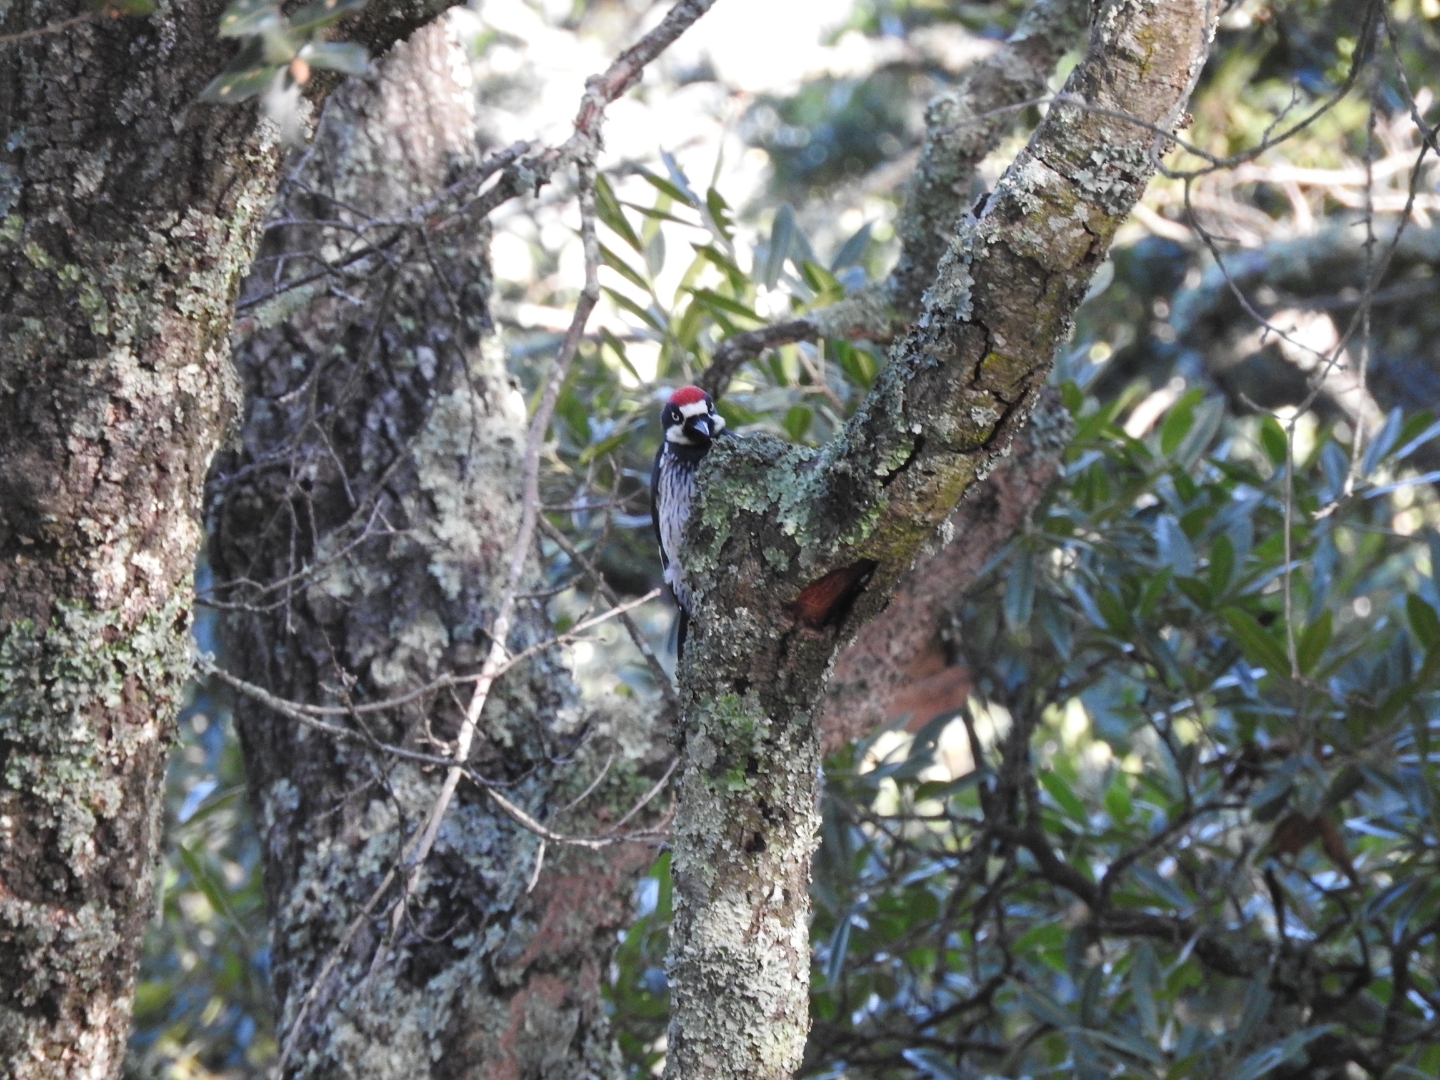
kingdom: Animalia
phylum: Chordata
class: Aves
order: Piciformes
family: Picidae
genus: Melanerpes
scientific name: Melanerpes formicivorus
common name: Acorn woodpecker
